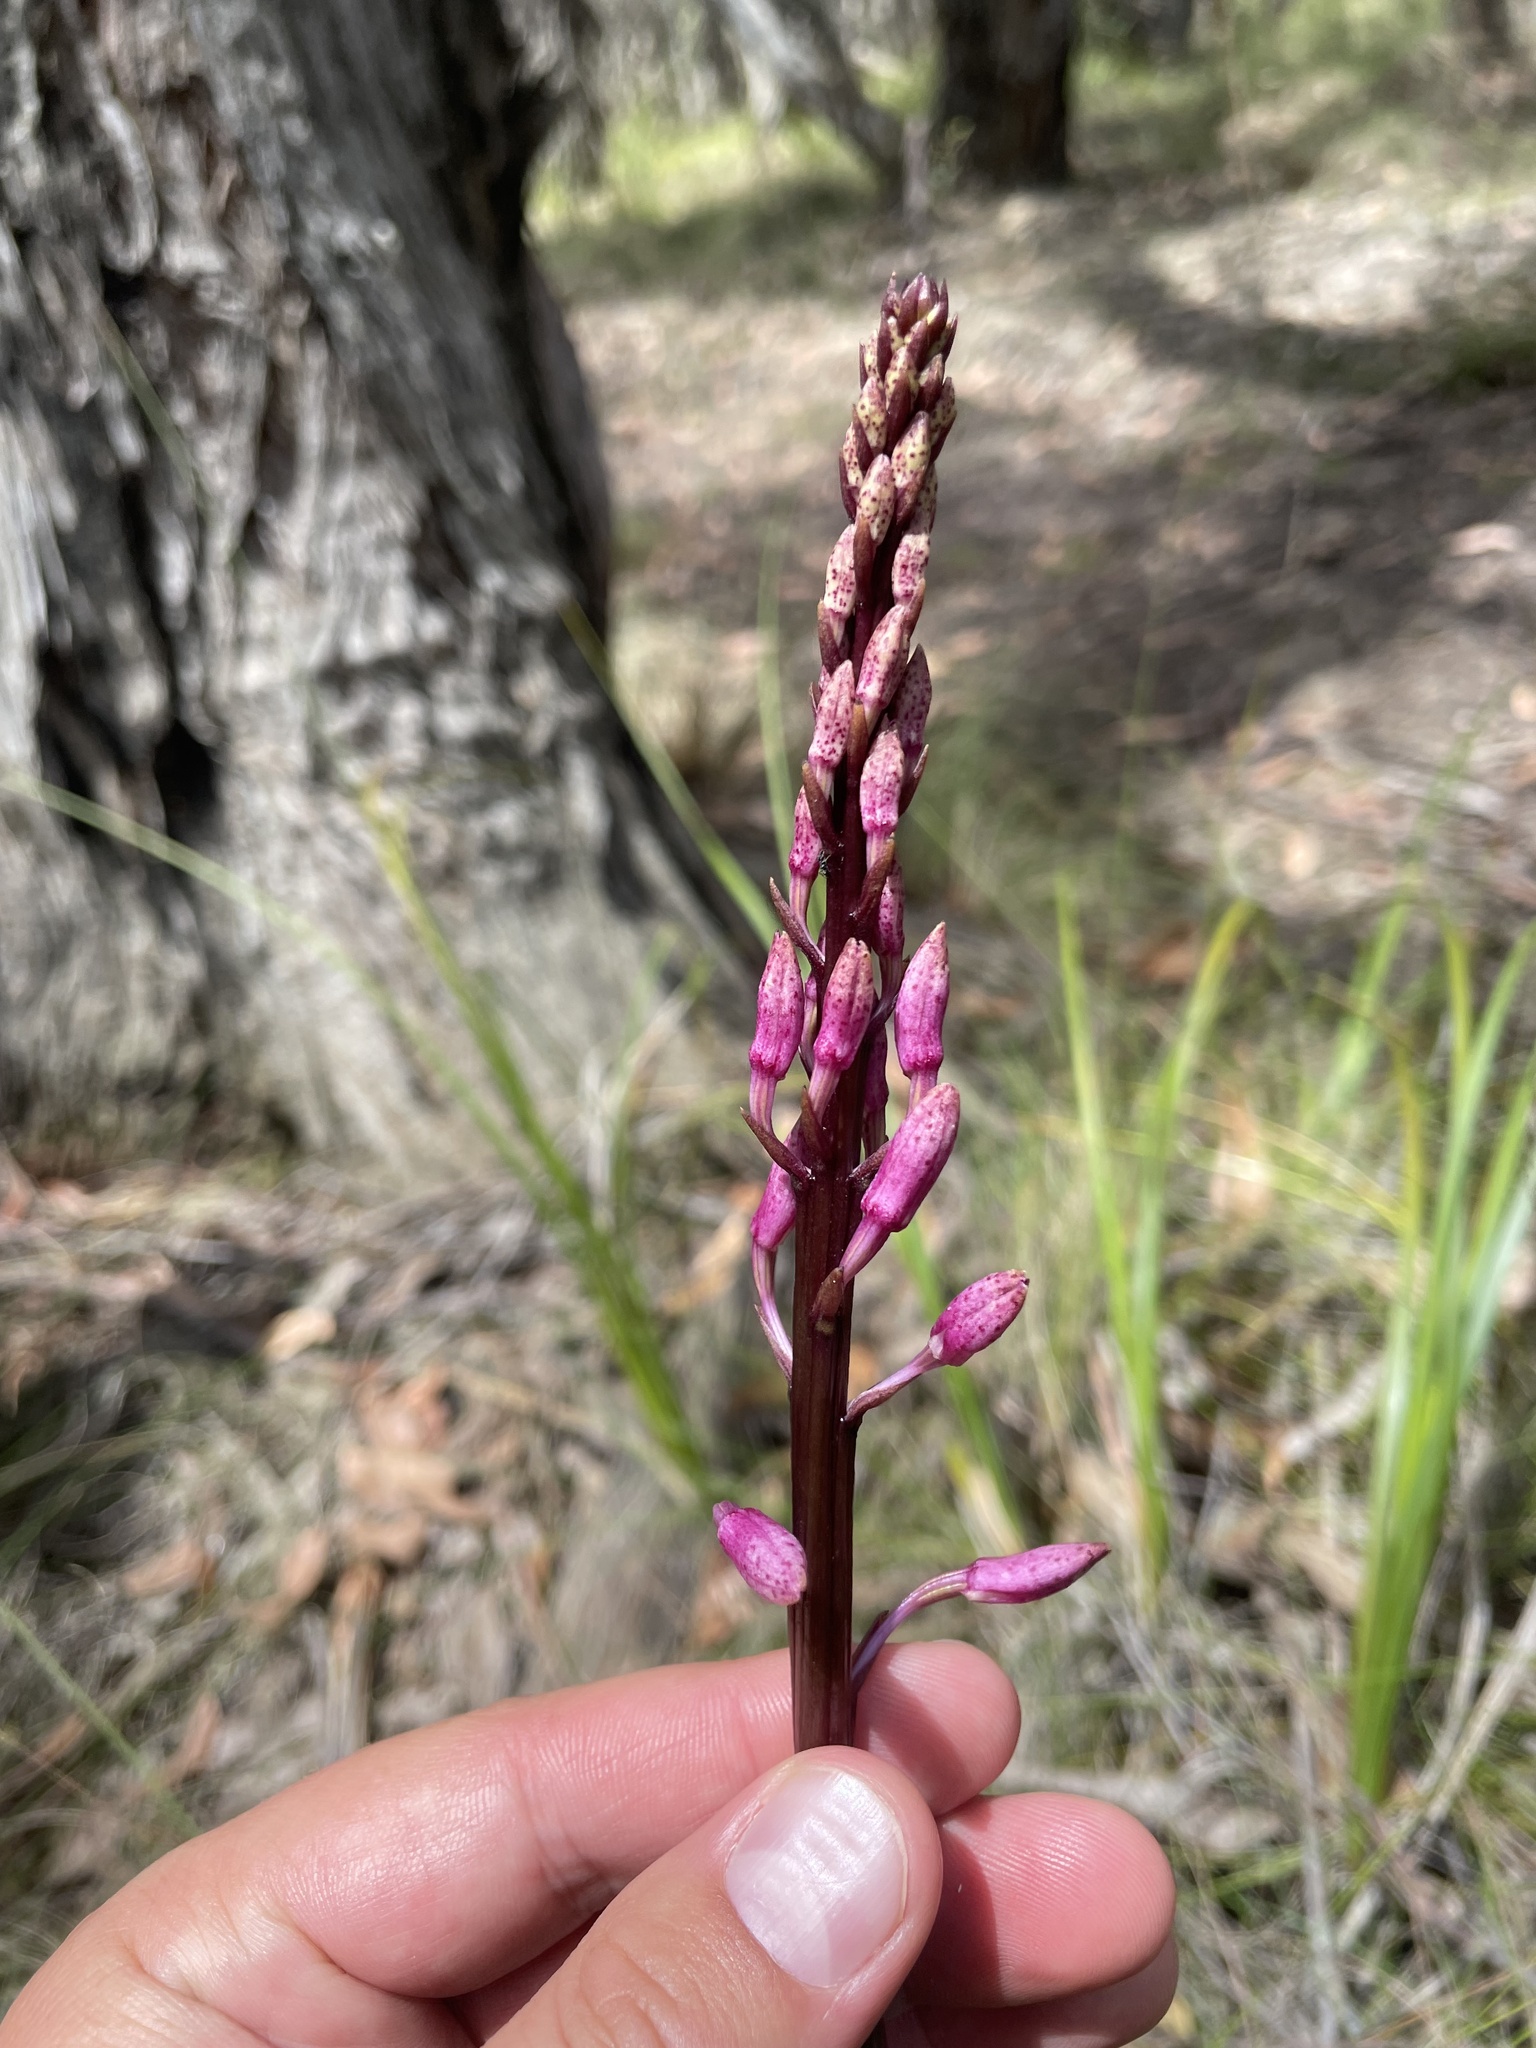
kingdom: Plantae
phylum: Tracheophyta
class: Liliopsida
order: Asparagales
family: Orchidaceae
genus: Dipodium
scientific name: Dipodium roseum
